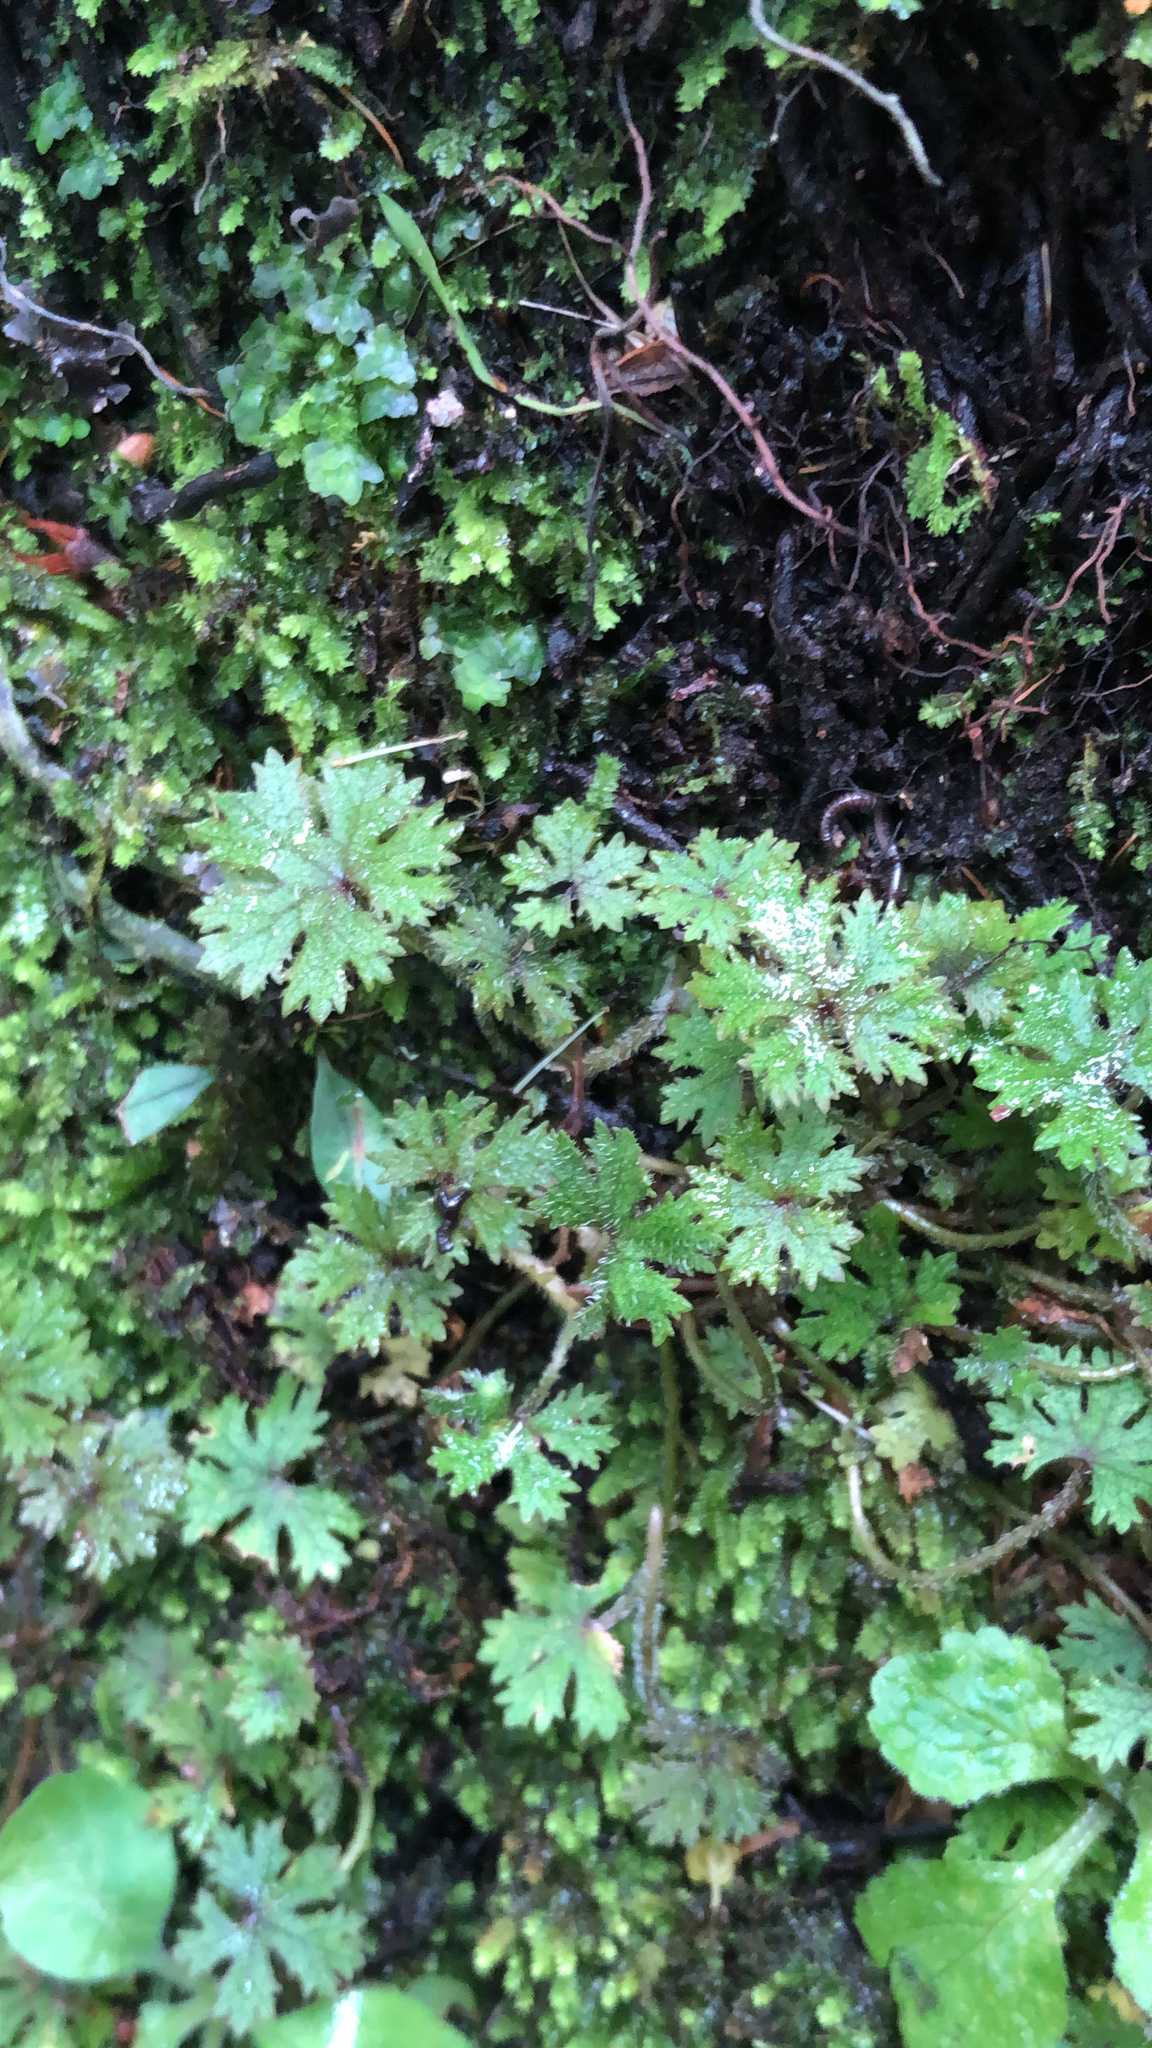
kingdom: Plantae
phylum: Tracheophyta
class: Magnoliopsida
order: Apiales
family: Araliaceae
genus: Hydrocotyle
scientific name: Hydrocotyle dissecta
